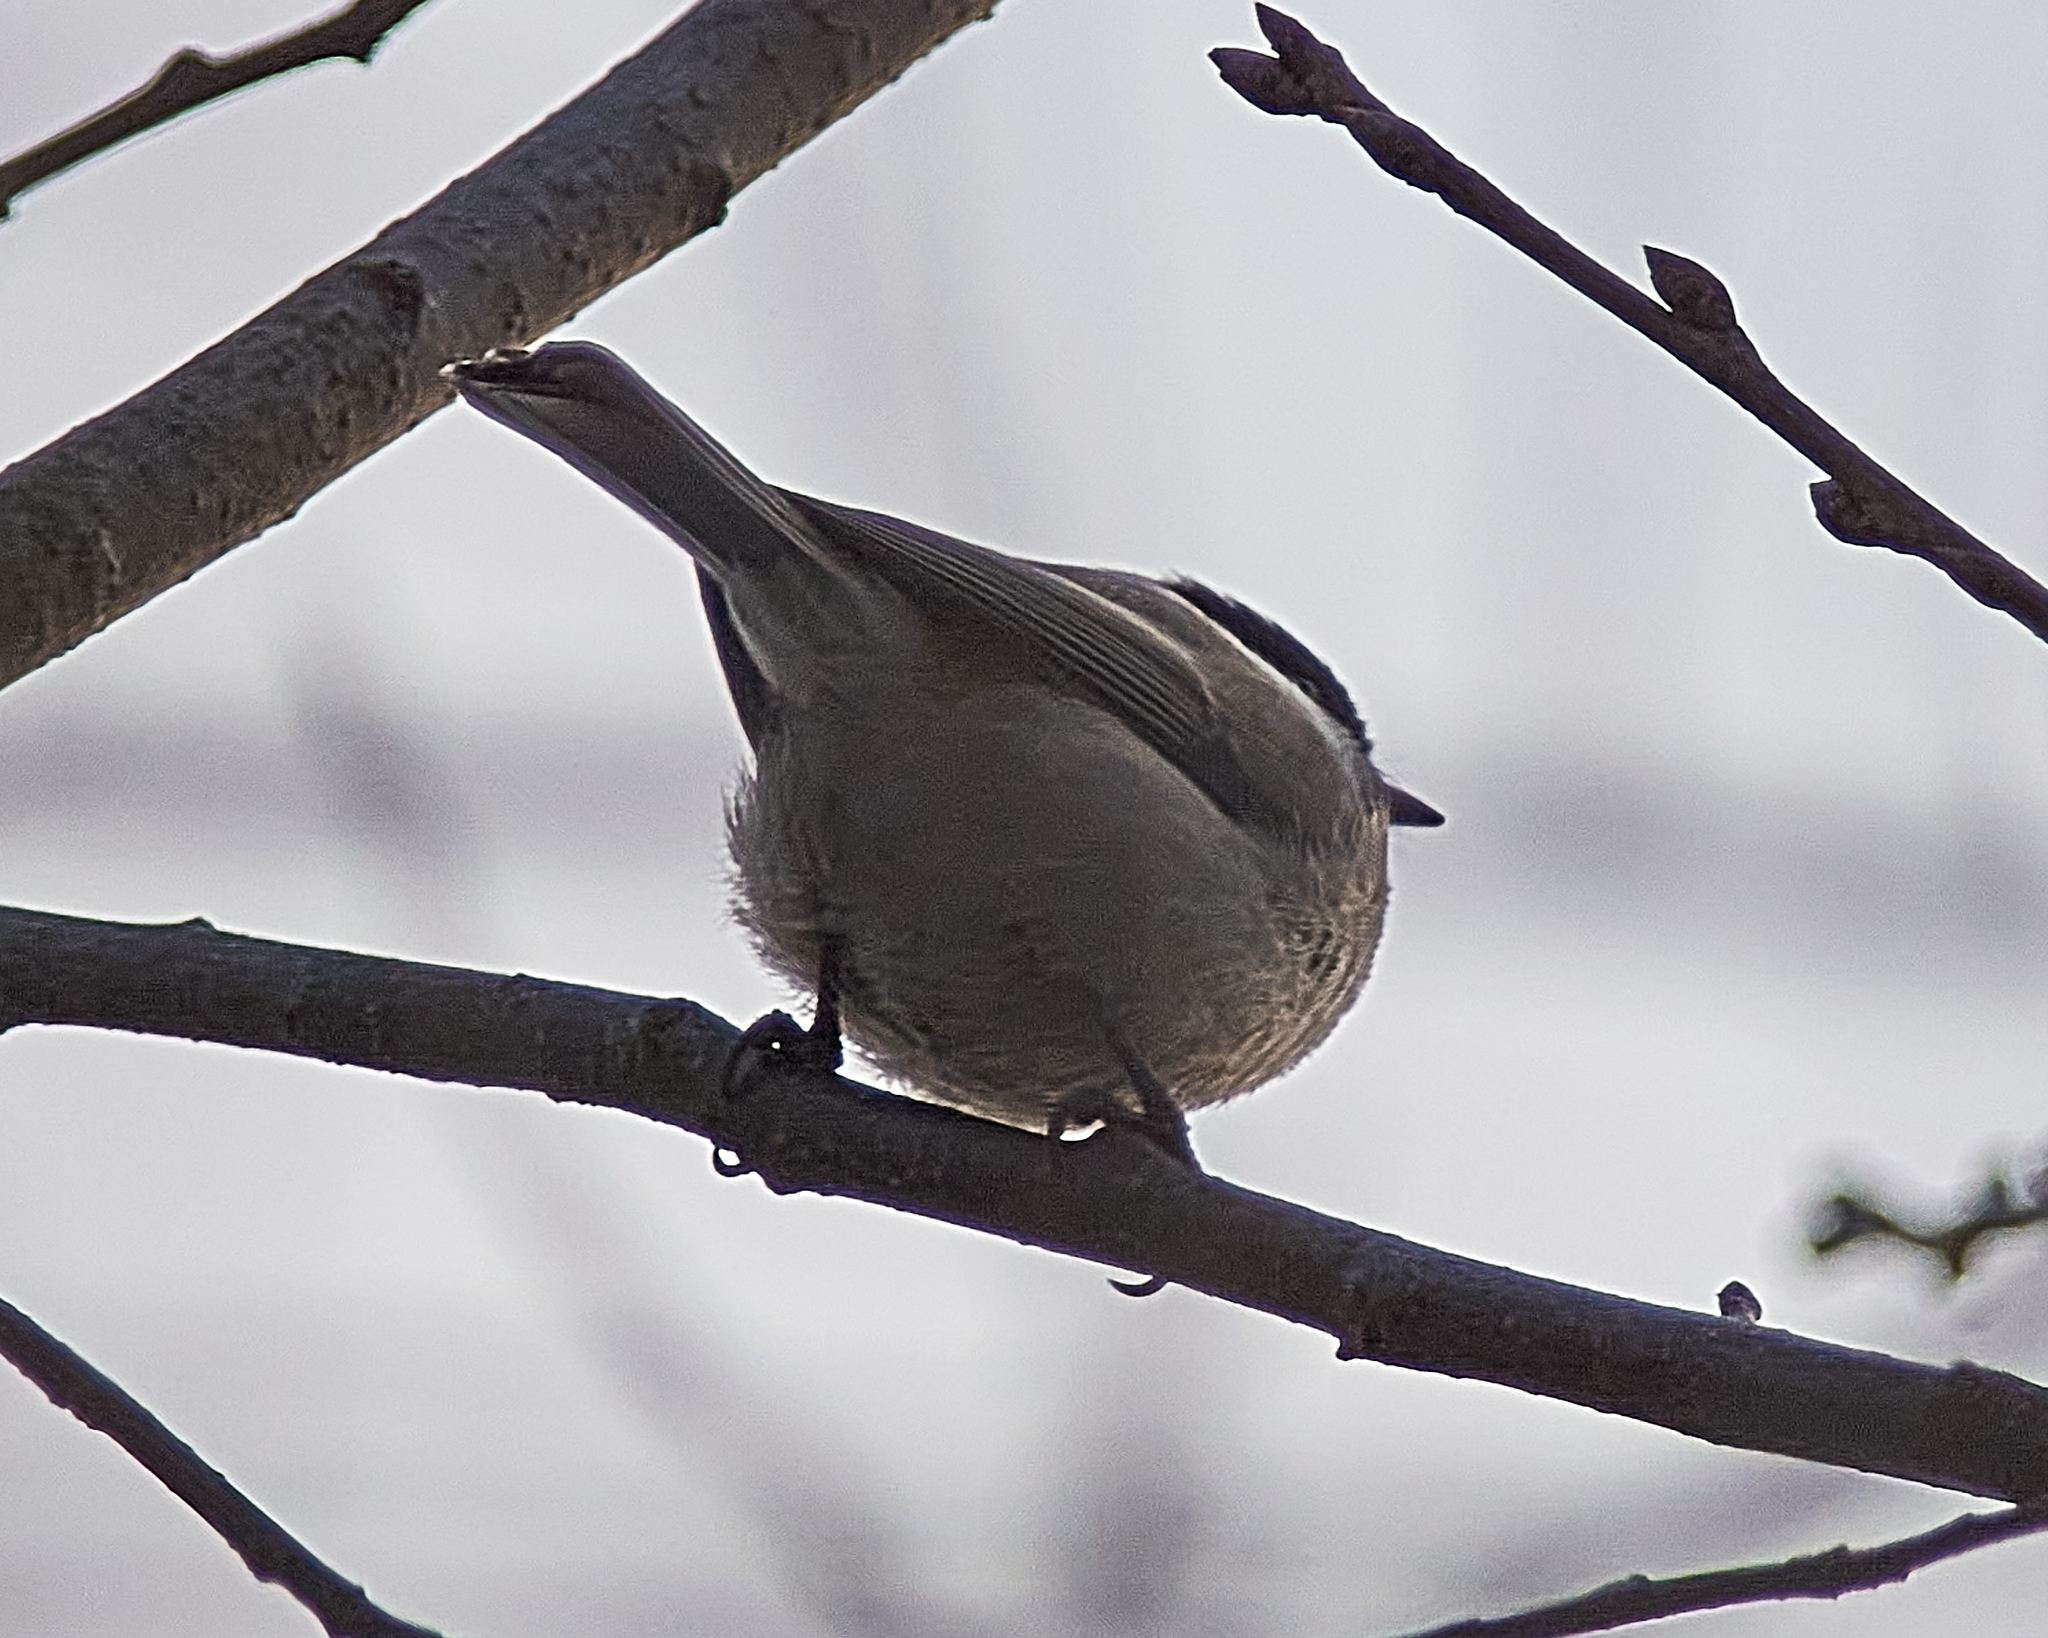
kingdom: Animalia
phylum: Chordata
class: Aves
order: Passeriformes
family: Paridae
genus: Poecile
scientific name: Poecile montanus
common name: Willow tit
